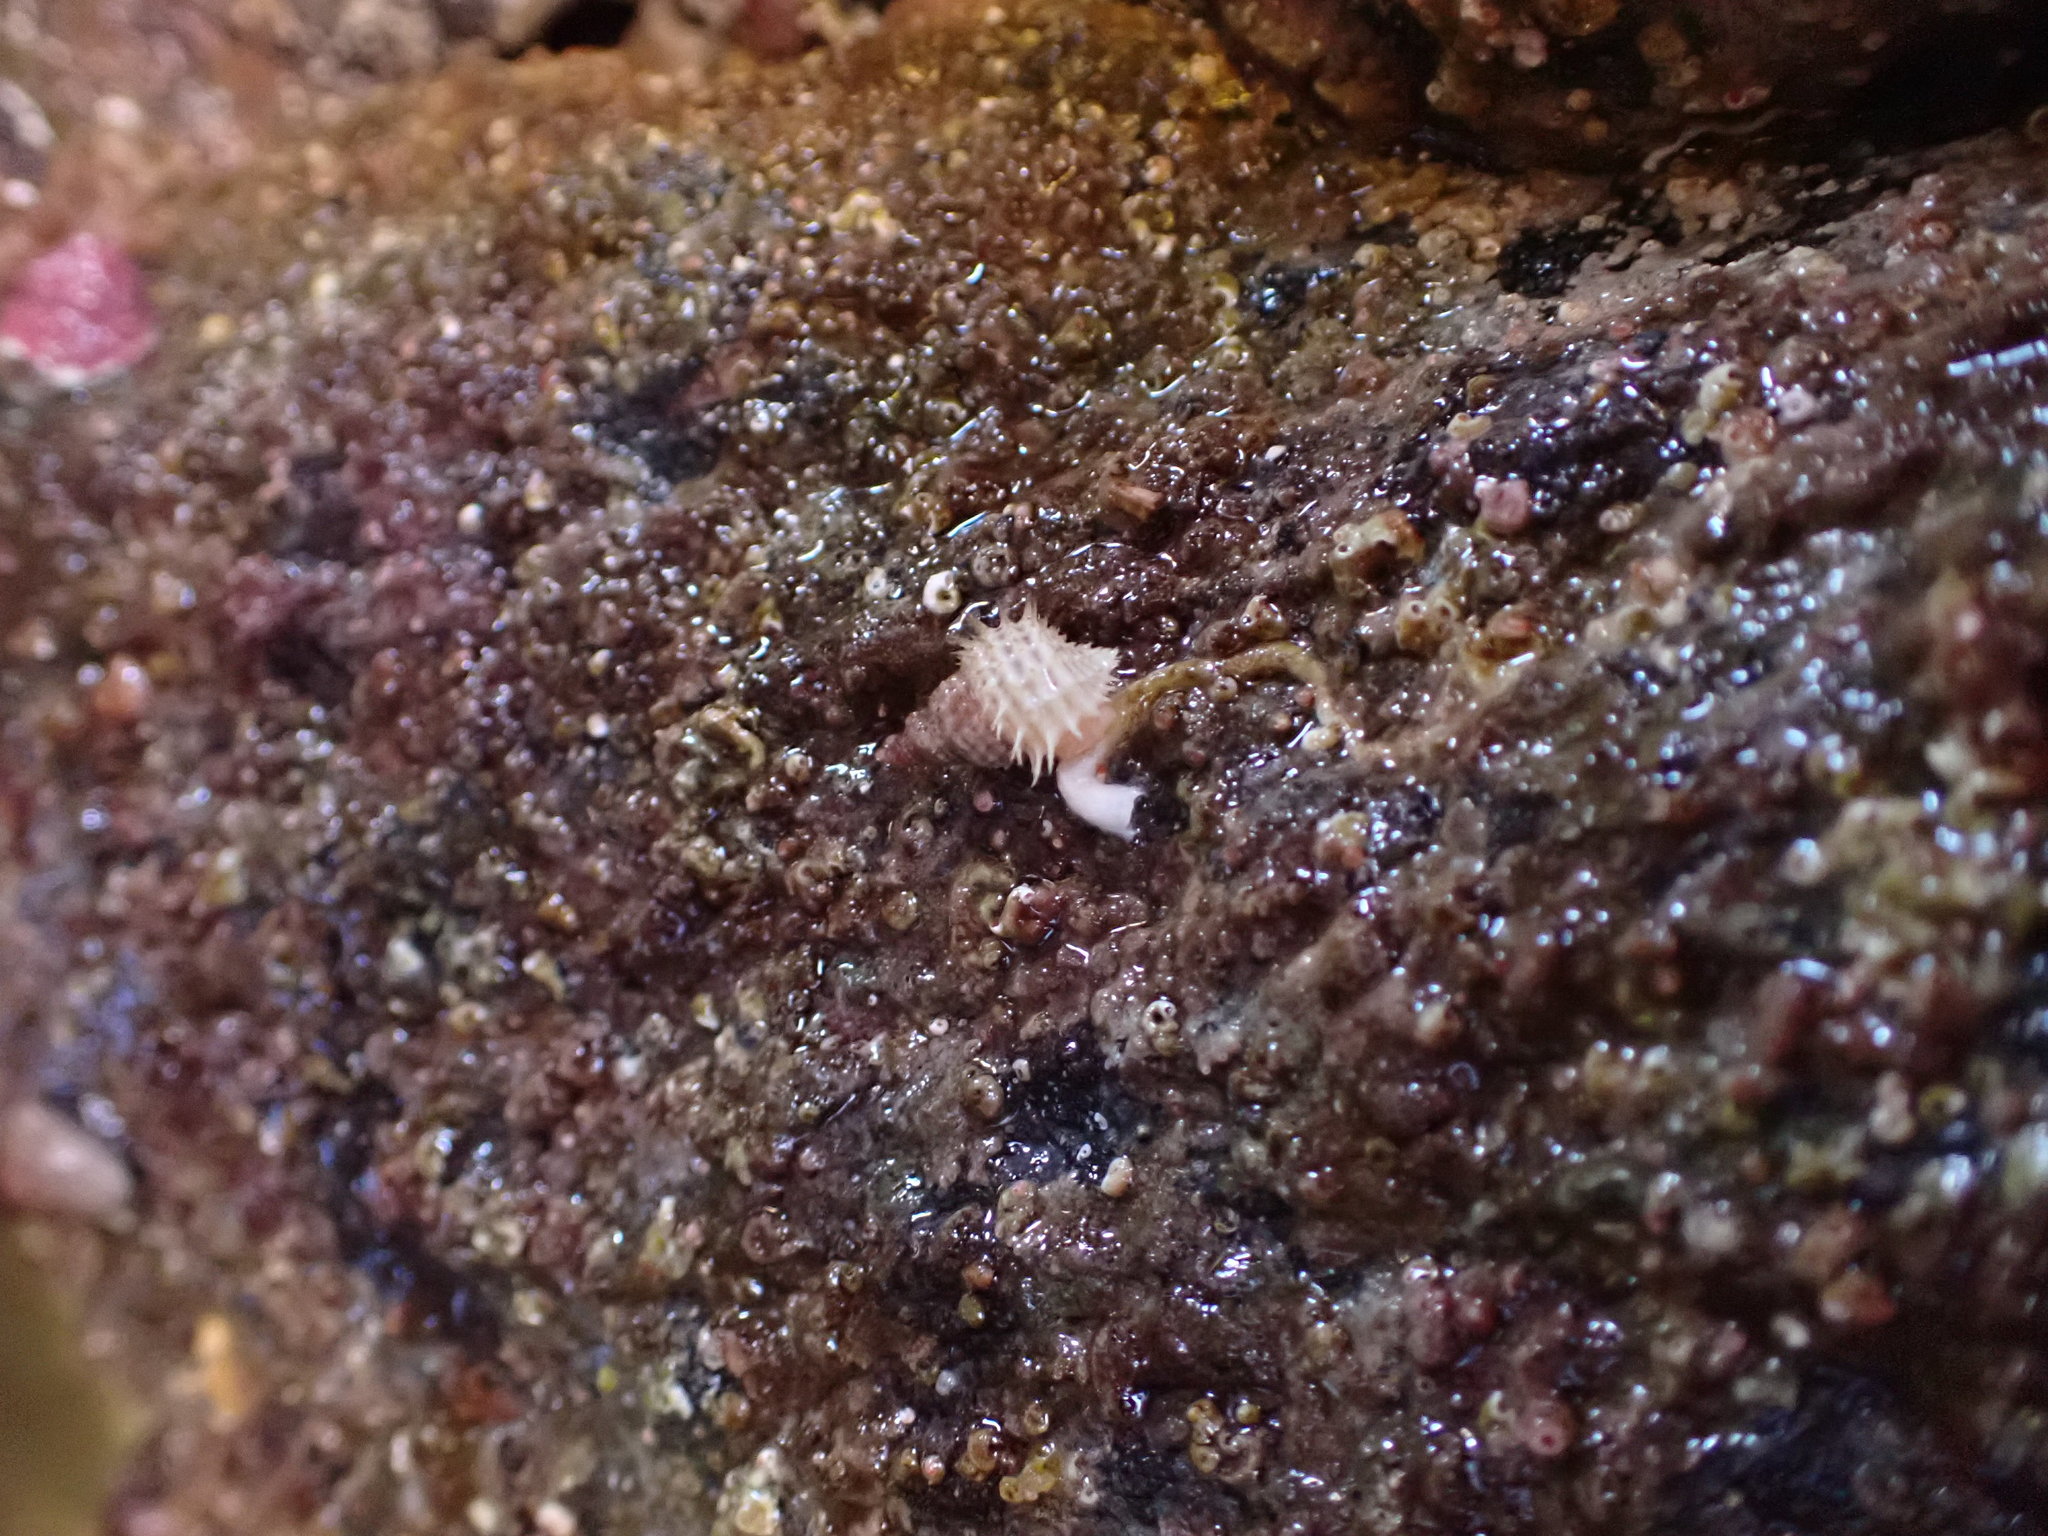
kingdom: Animalia
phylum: Mollusca
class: Gastropoda
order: Littorinimorpha
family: Capulidae
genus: Trichotropis
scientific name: Trichotropis cancellata
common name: Cancellate hairysnail
